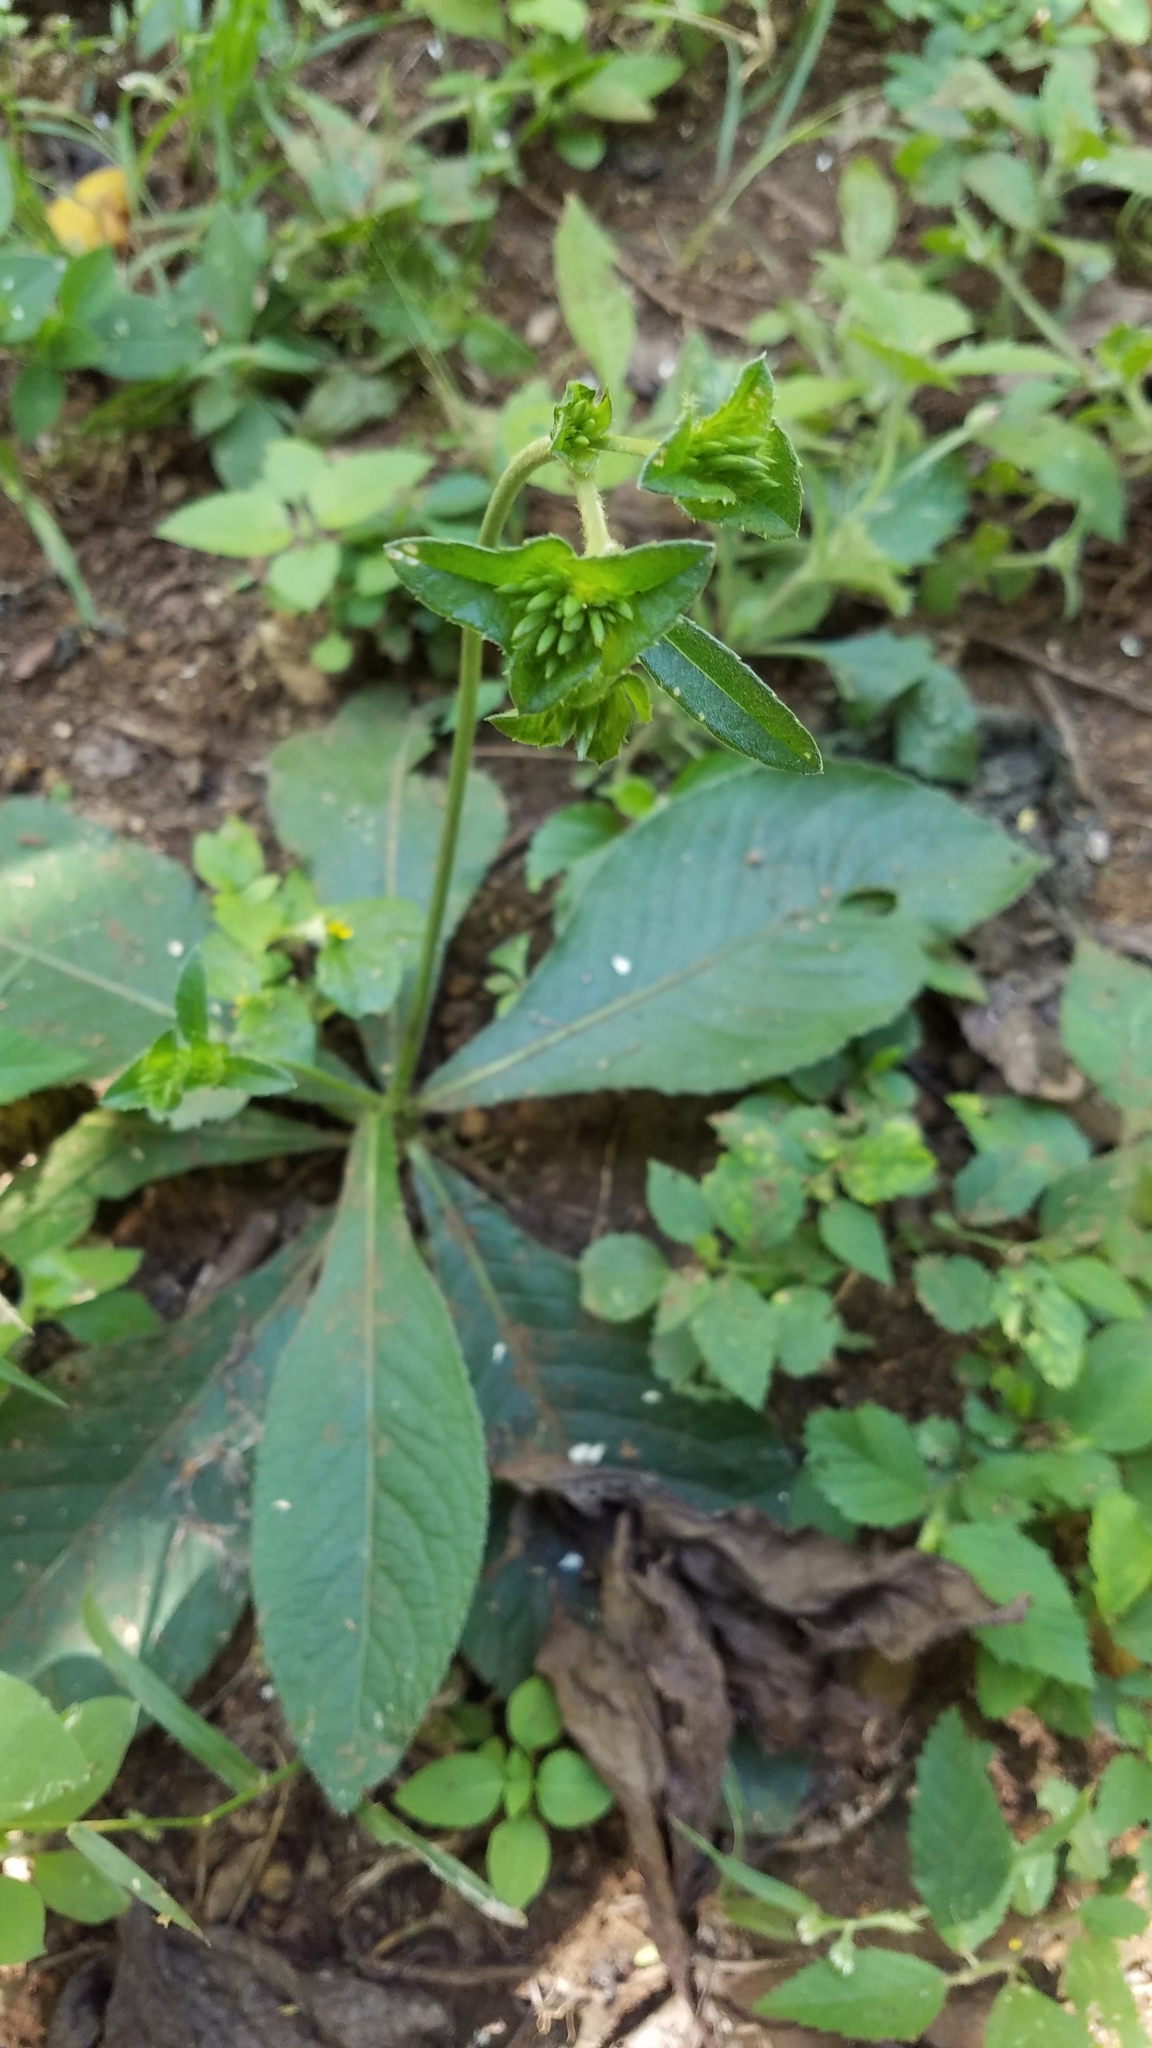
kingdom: Plantae
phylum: Tracheophyta
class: Magnoliopsida
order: Asterales
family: Asteraceae
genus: Elephantopus
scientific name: Elephantopus mollis
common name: Soft elephantsfoot
